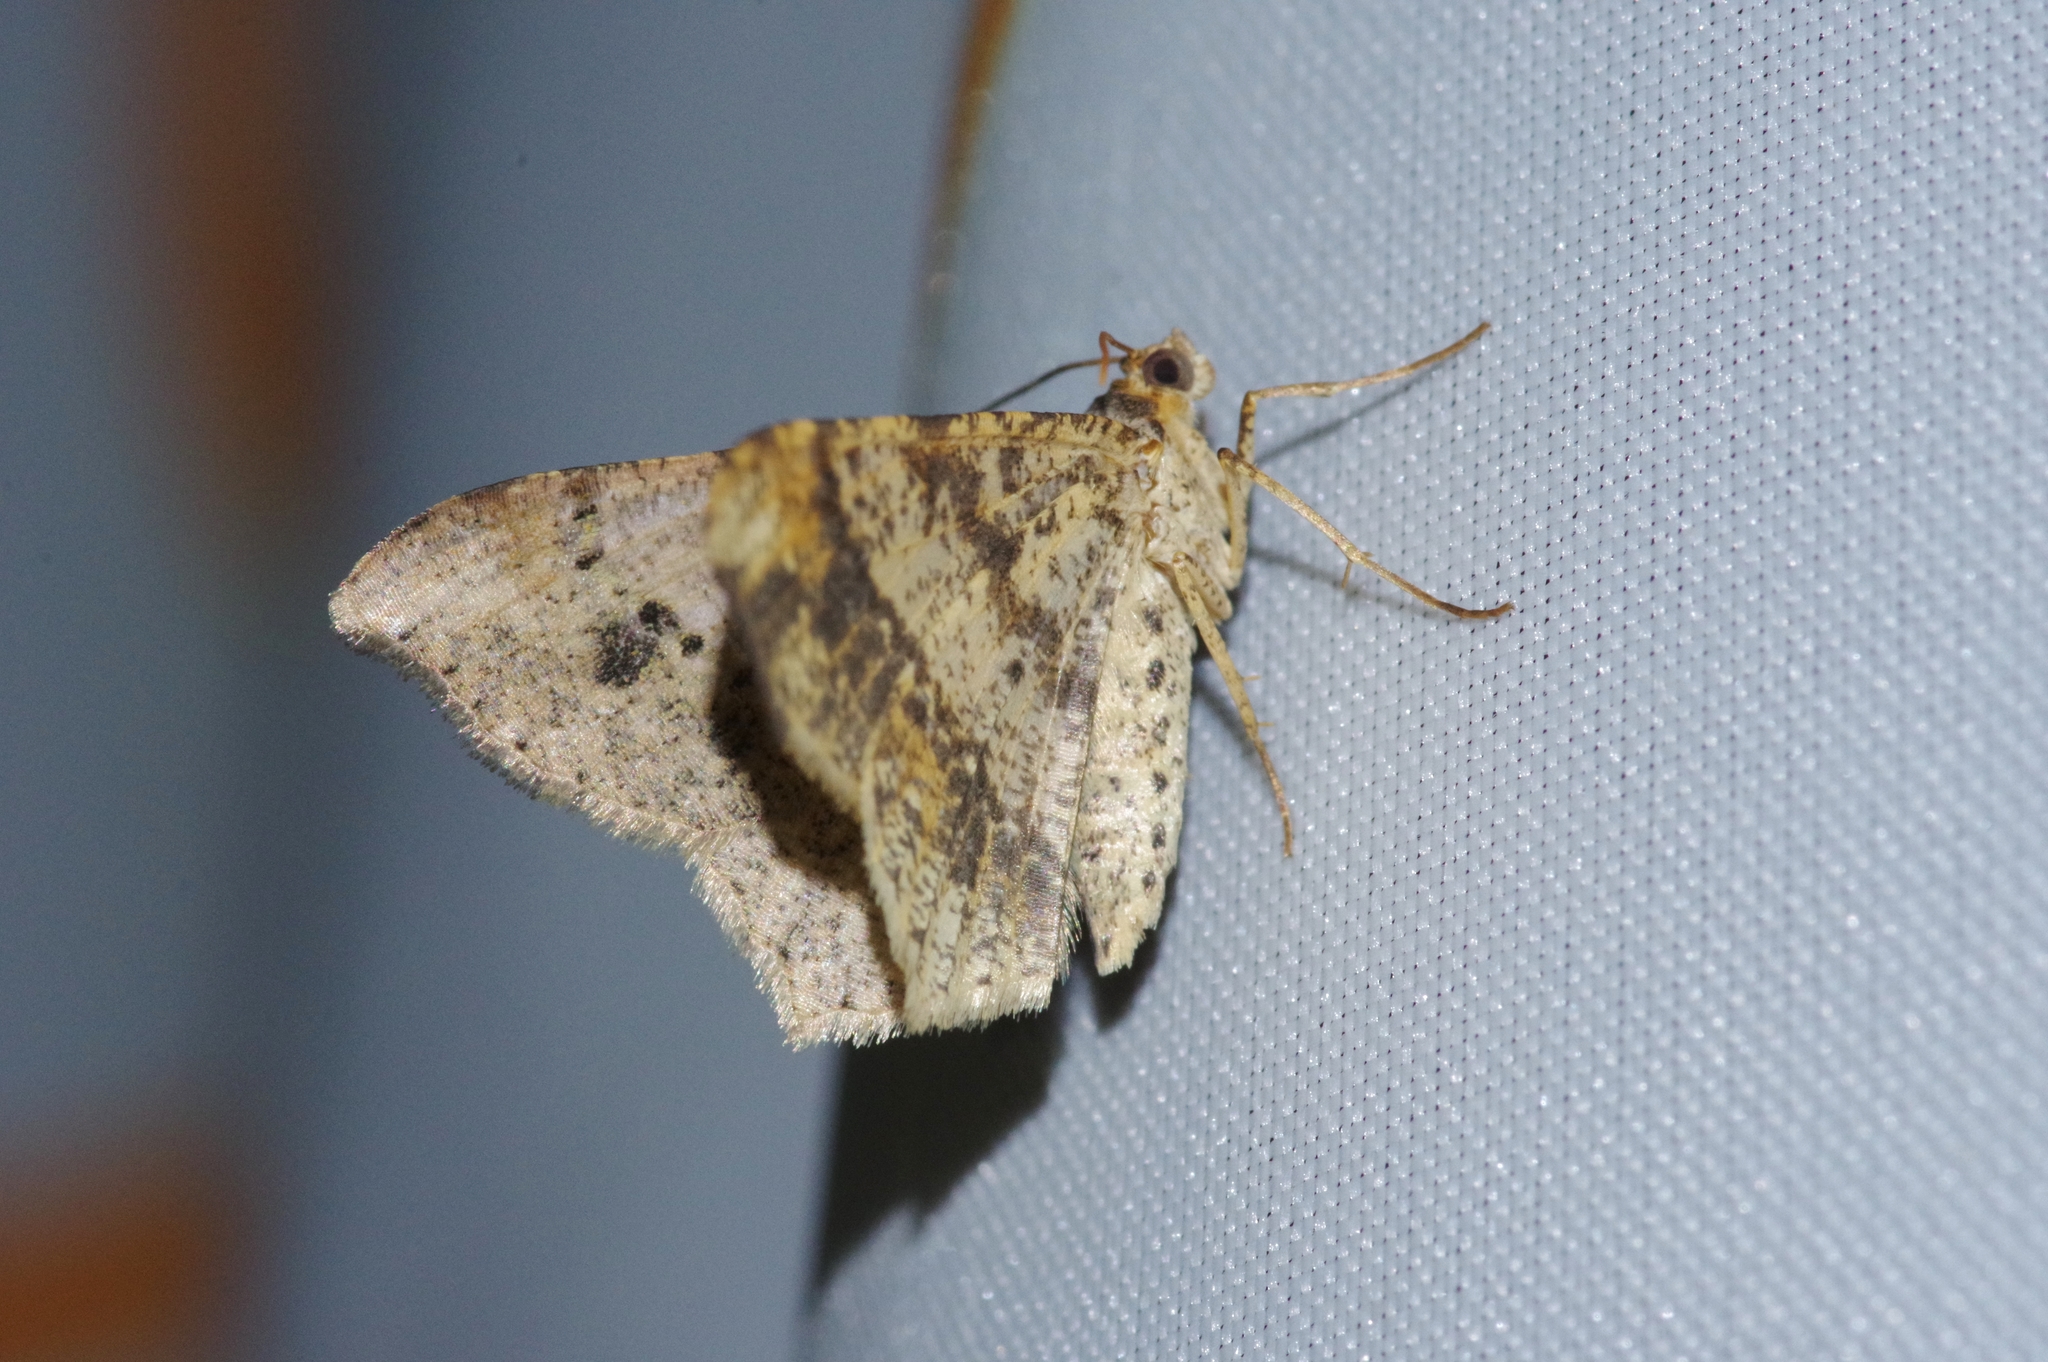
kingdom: Animalia
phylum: Arthropoda
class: Insecta
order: Lepidoptera
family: Geometridae
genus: Macaria
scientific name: Macaria abydata
